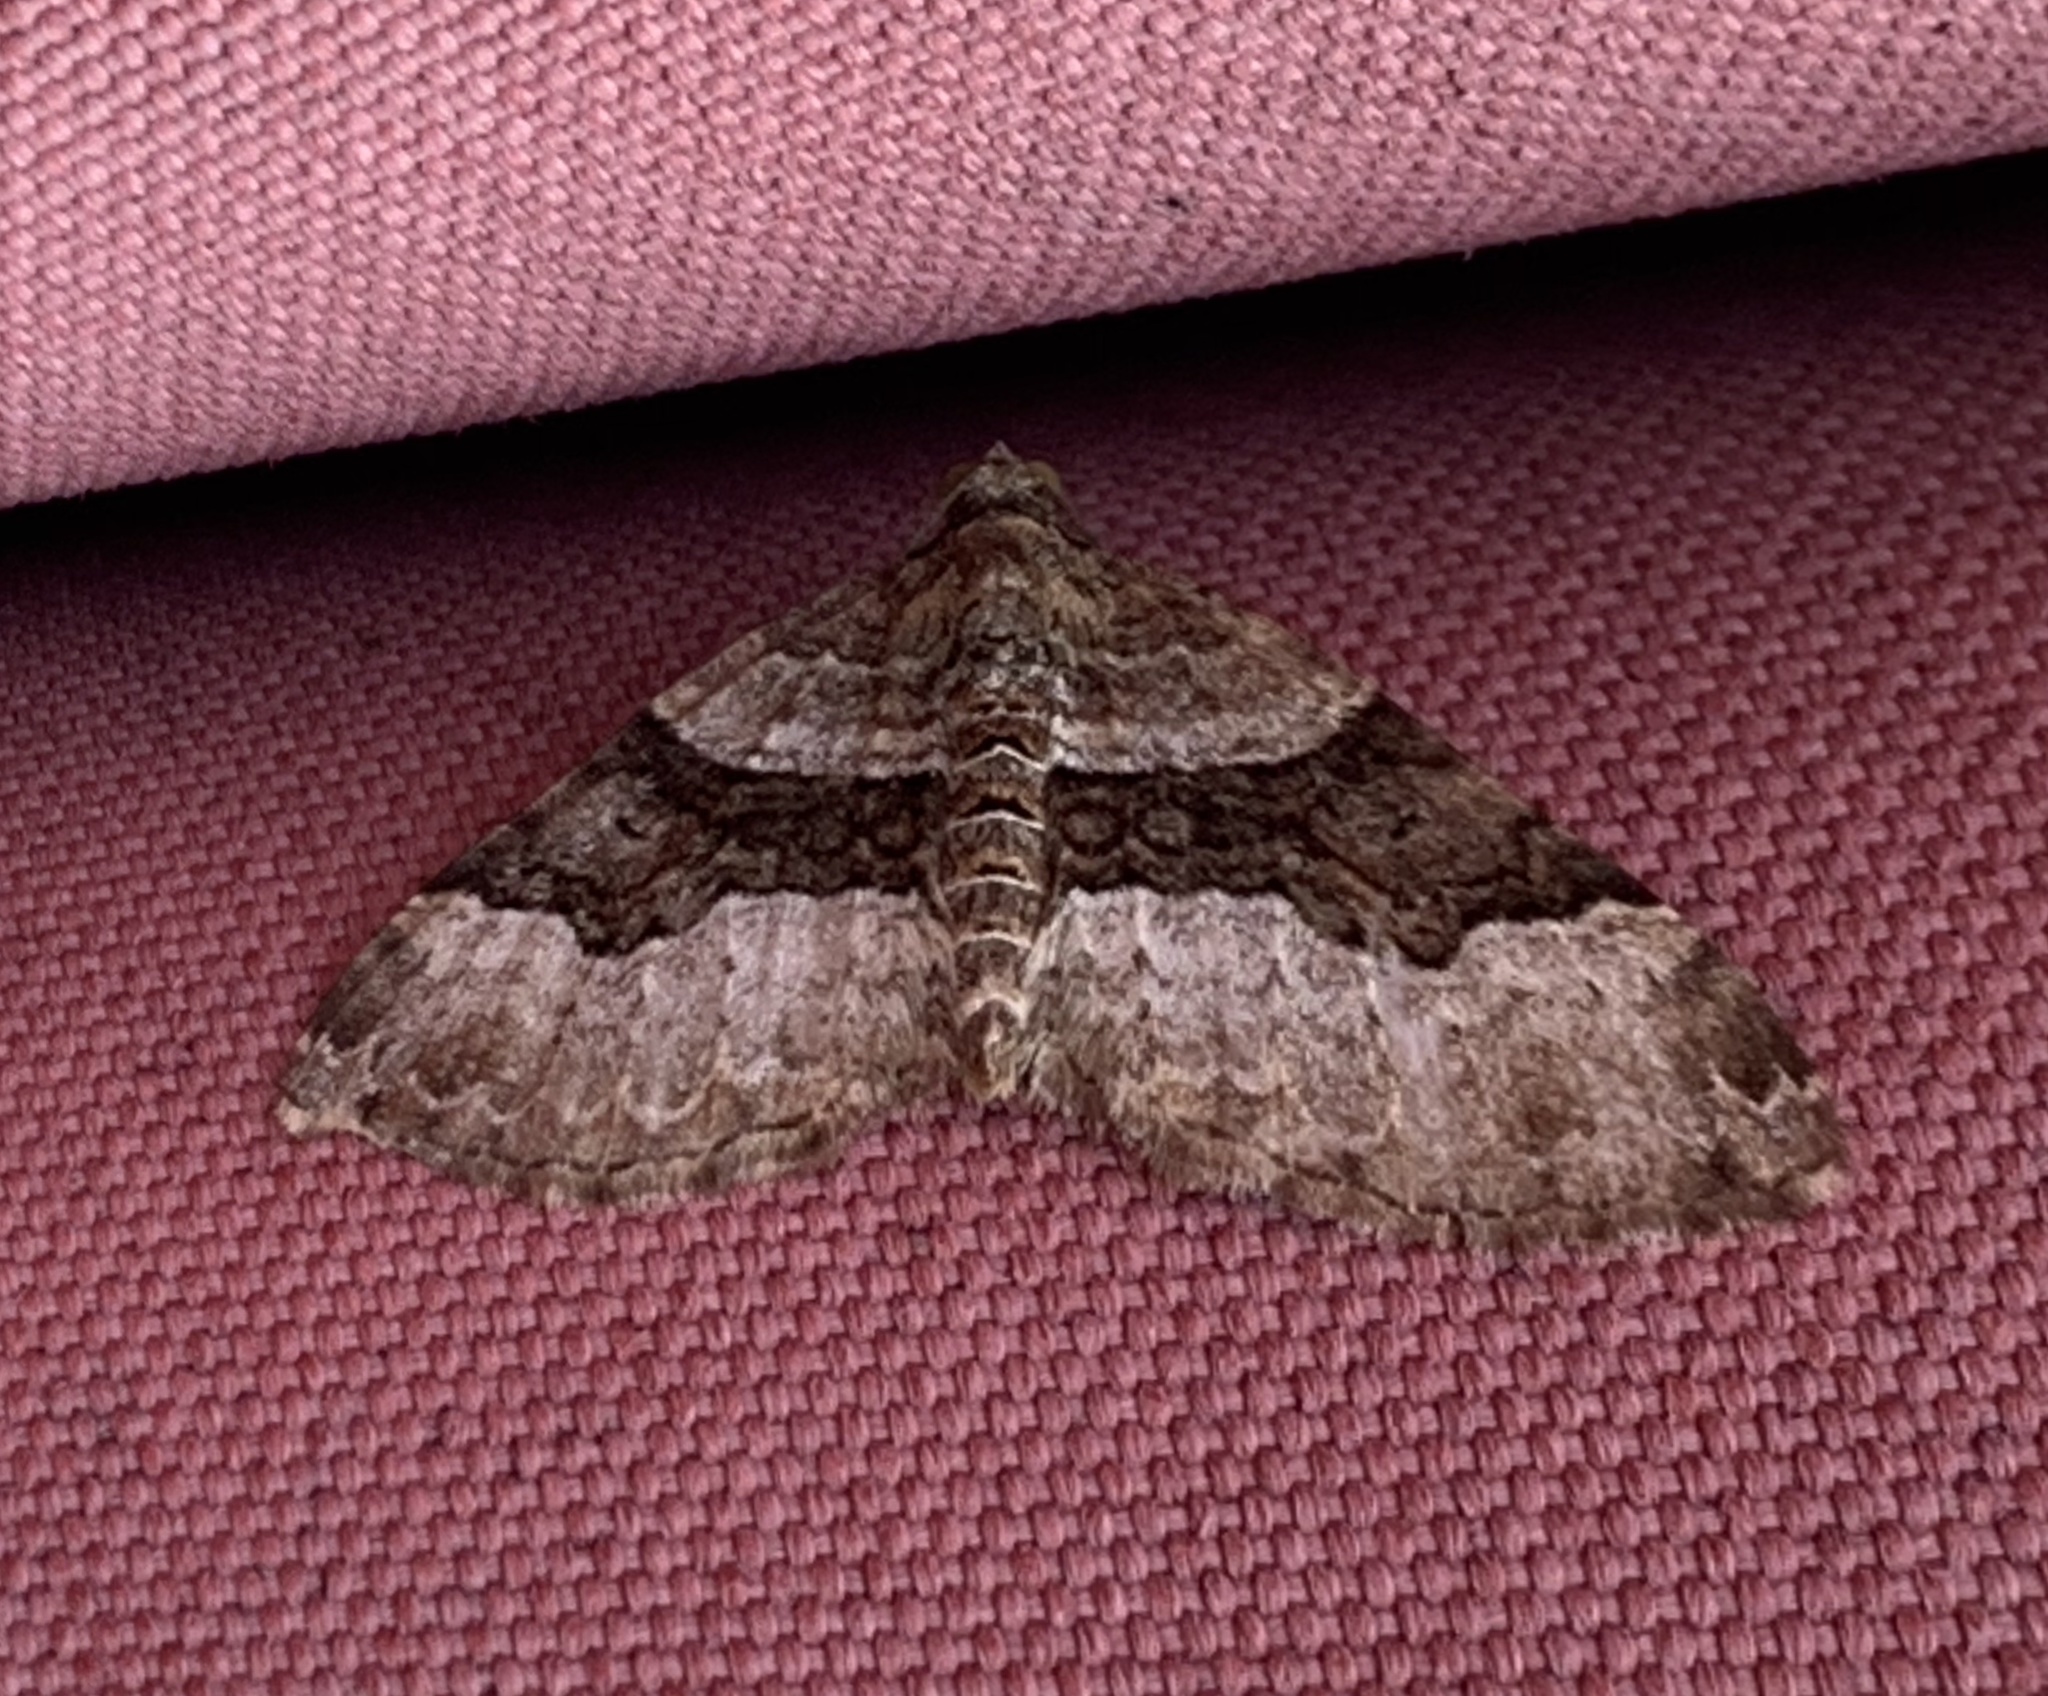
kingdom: Animalia
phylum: Arthropoda
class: Insecta
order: Lepidoptera
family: Geometridae
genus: Xanthorhoe
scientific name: Xanthorhoe lacustrata
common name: Toothed brown carpet
